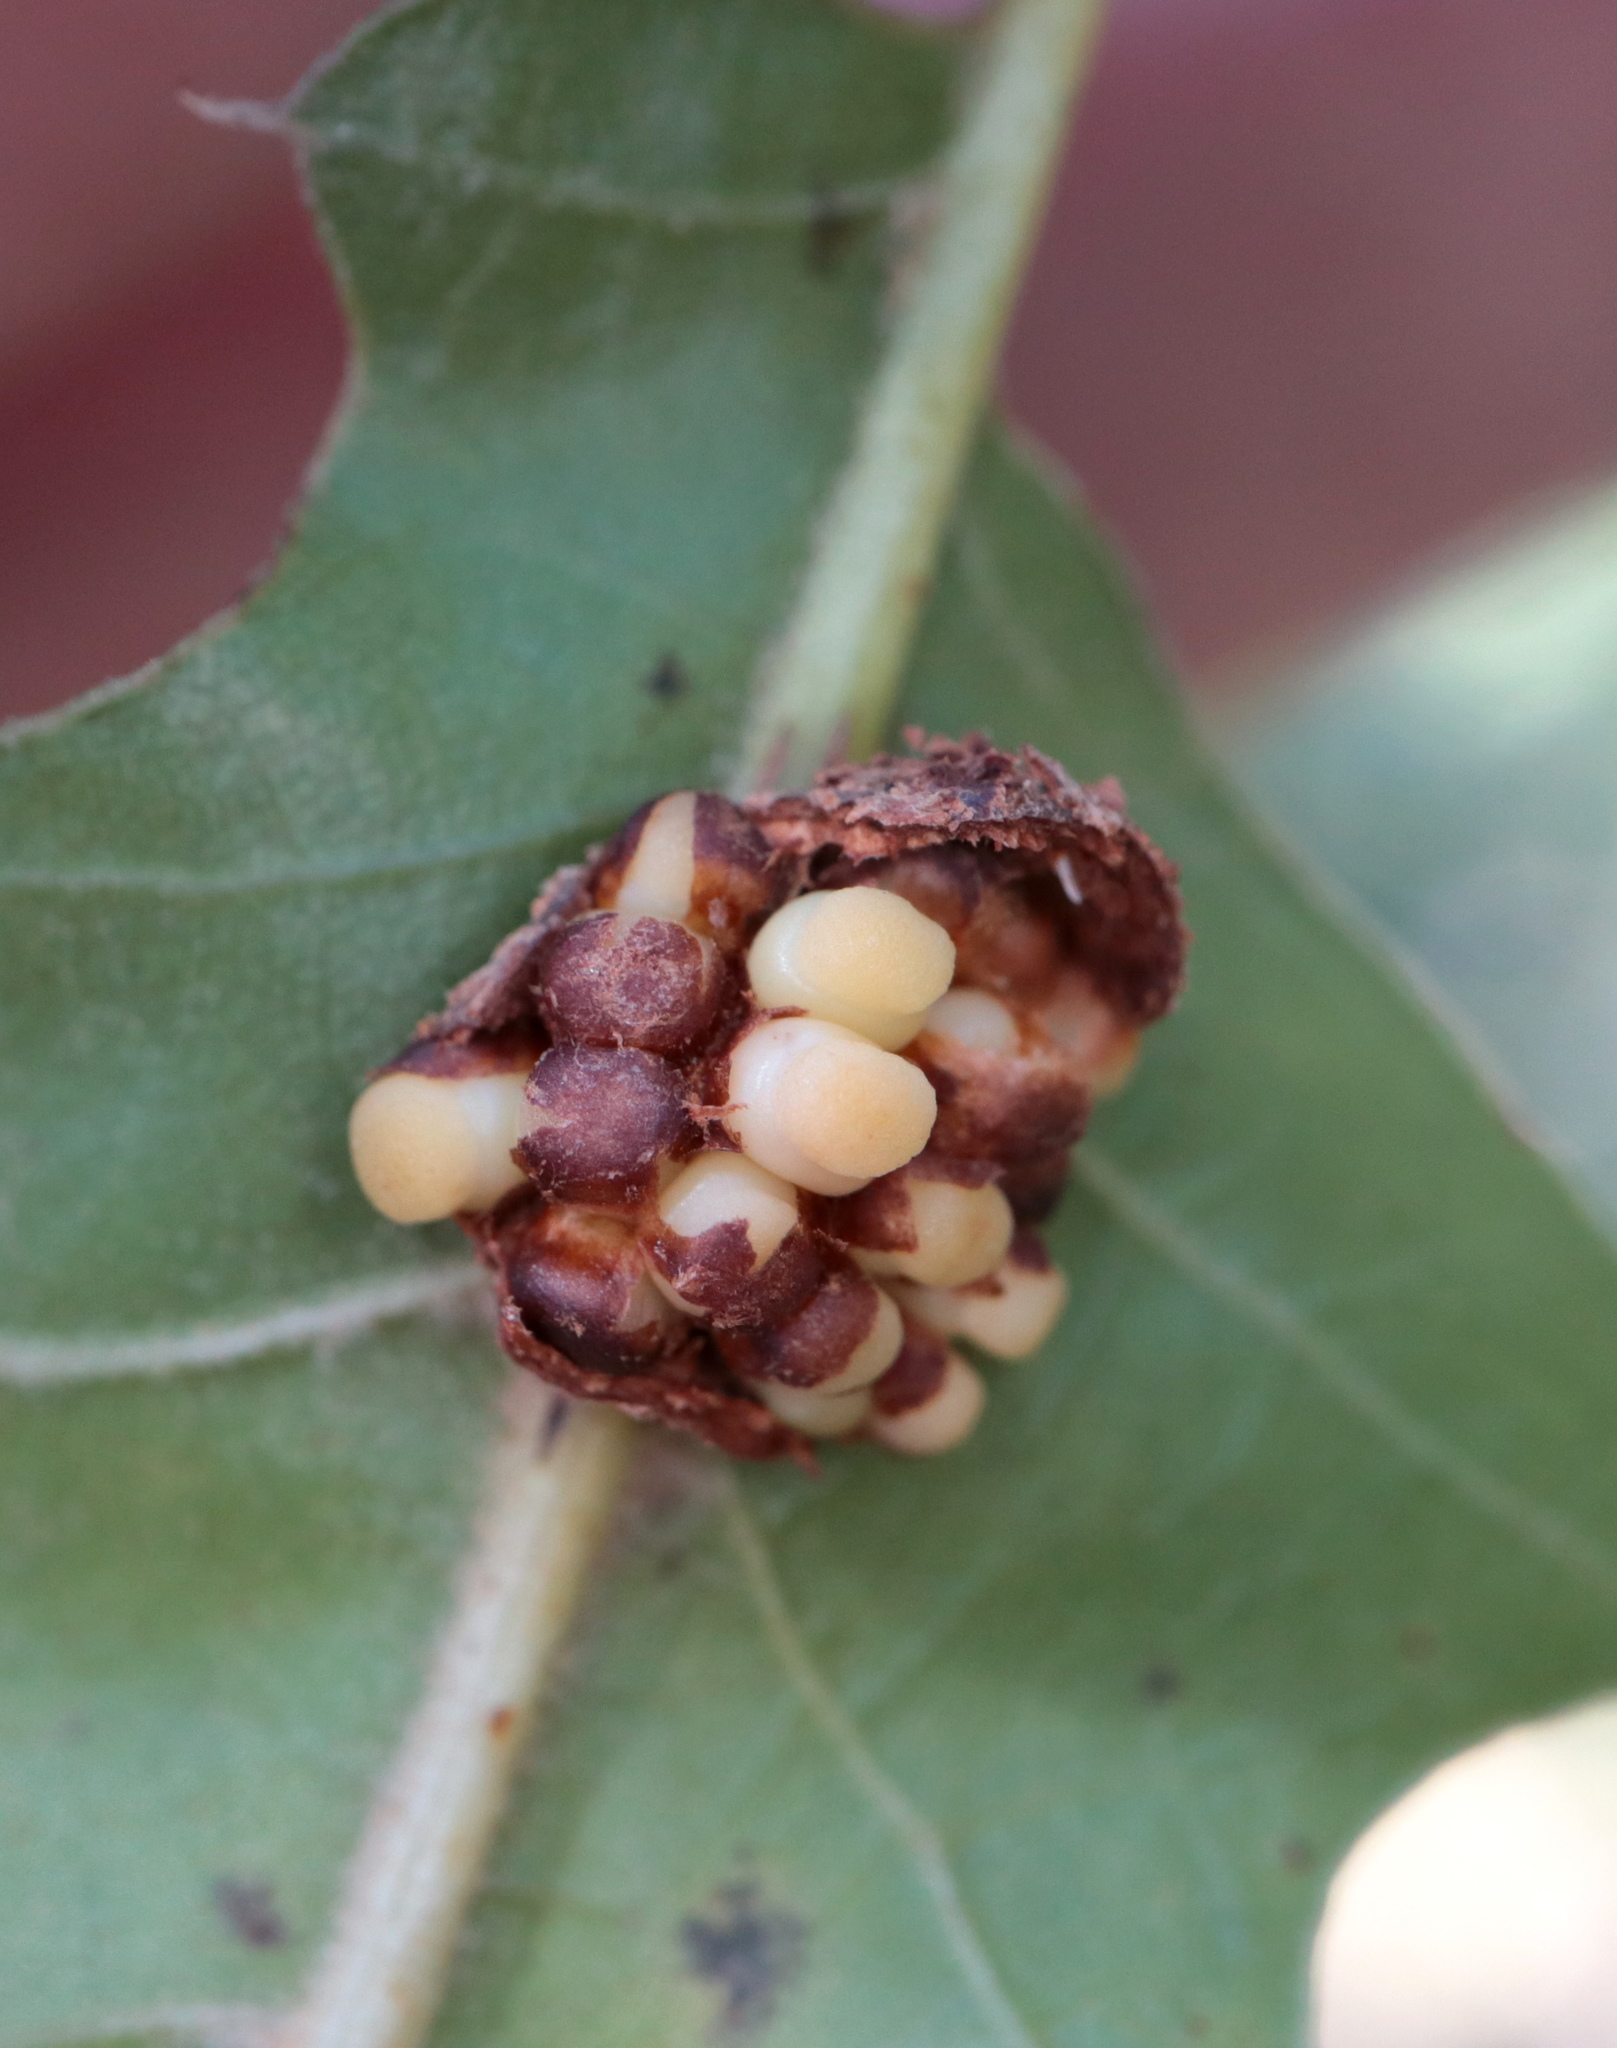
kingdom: Animalia
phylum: Arthropoda
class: Insecta
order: Hymenoptera
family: Cynipidae
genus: Kokkocynips
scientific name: Kokkocynips decidua
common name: Oak wheat gall
